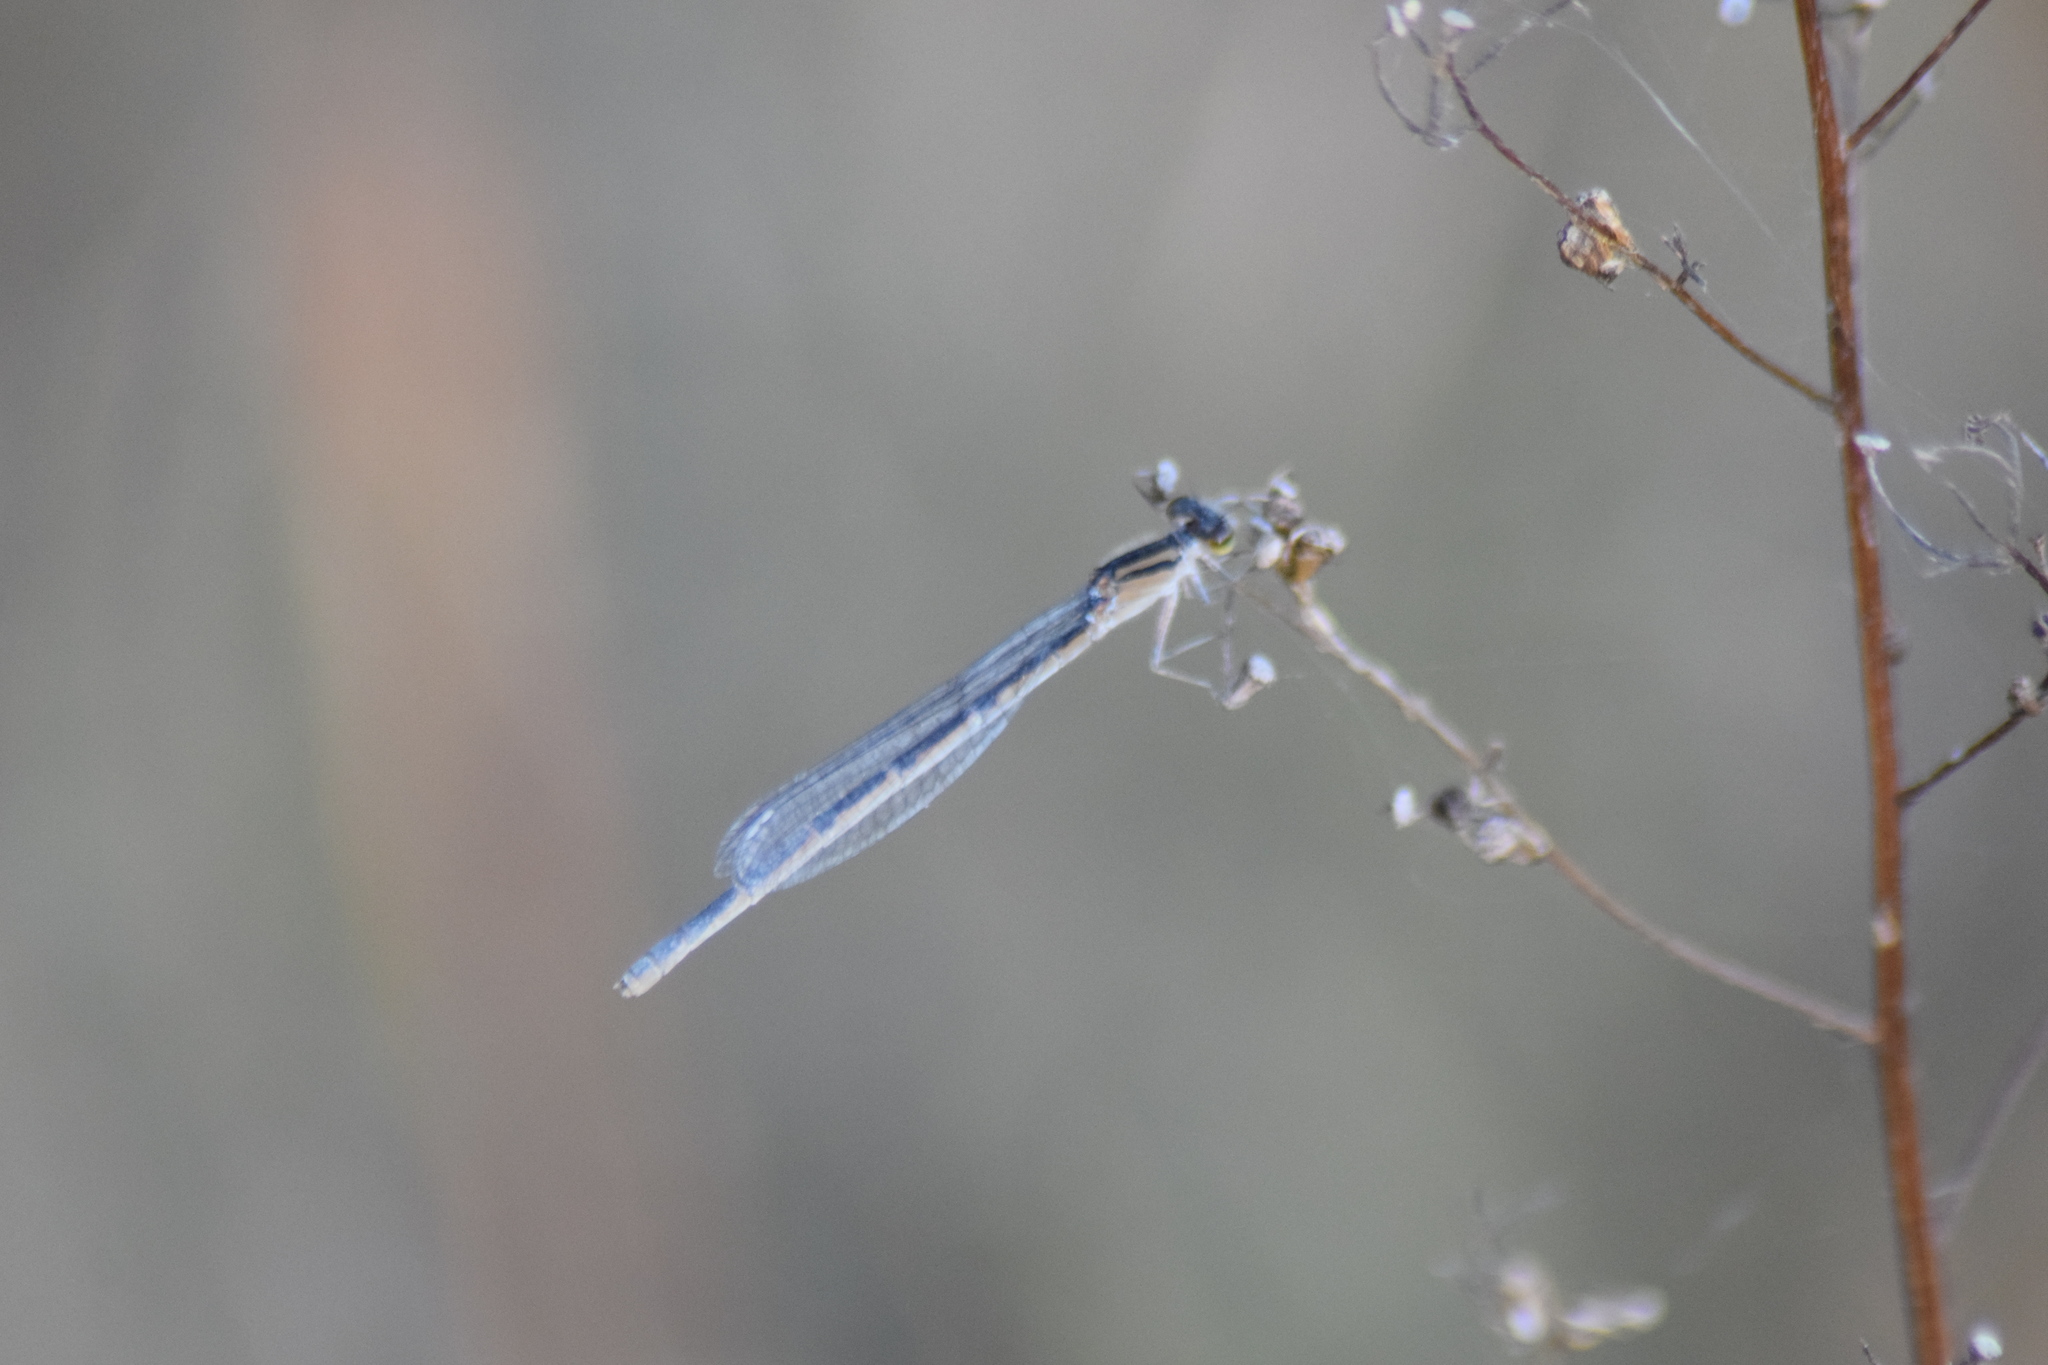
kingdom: Animalia
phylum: Arthropoda
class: Insecta
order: Odonata
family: Coenagrionidae
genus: Enallagma
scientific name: Enallagma signatum
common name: Orange bluet
